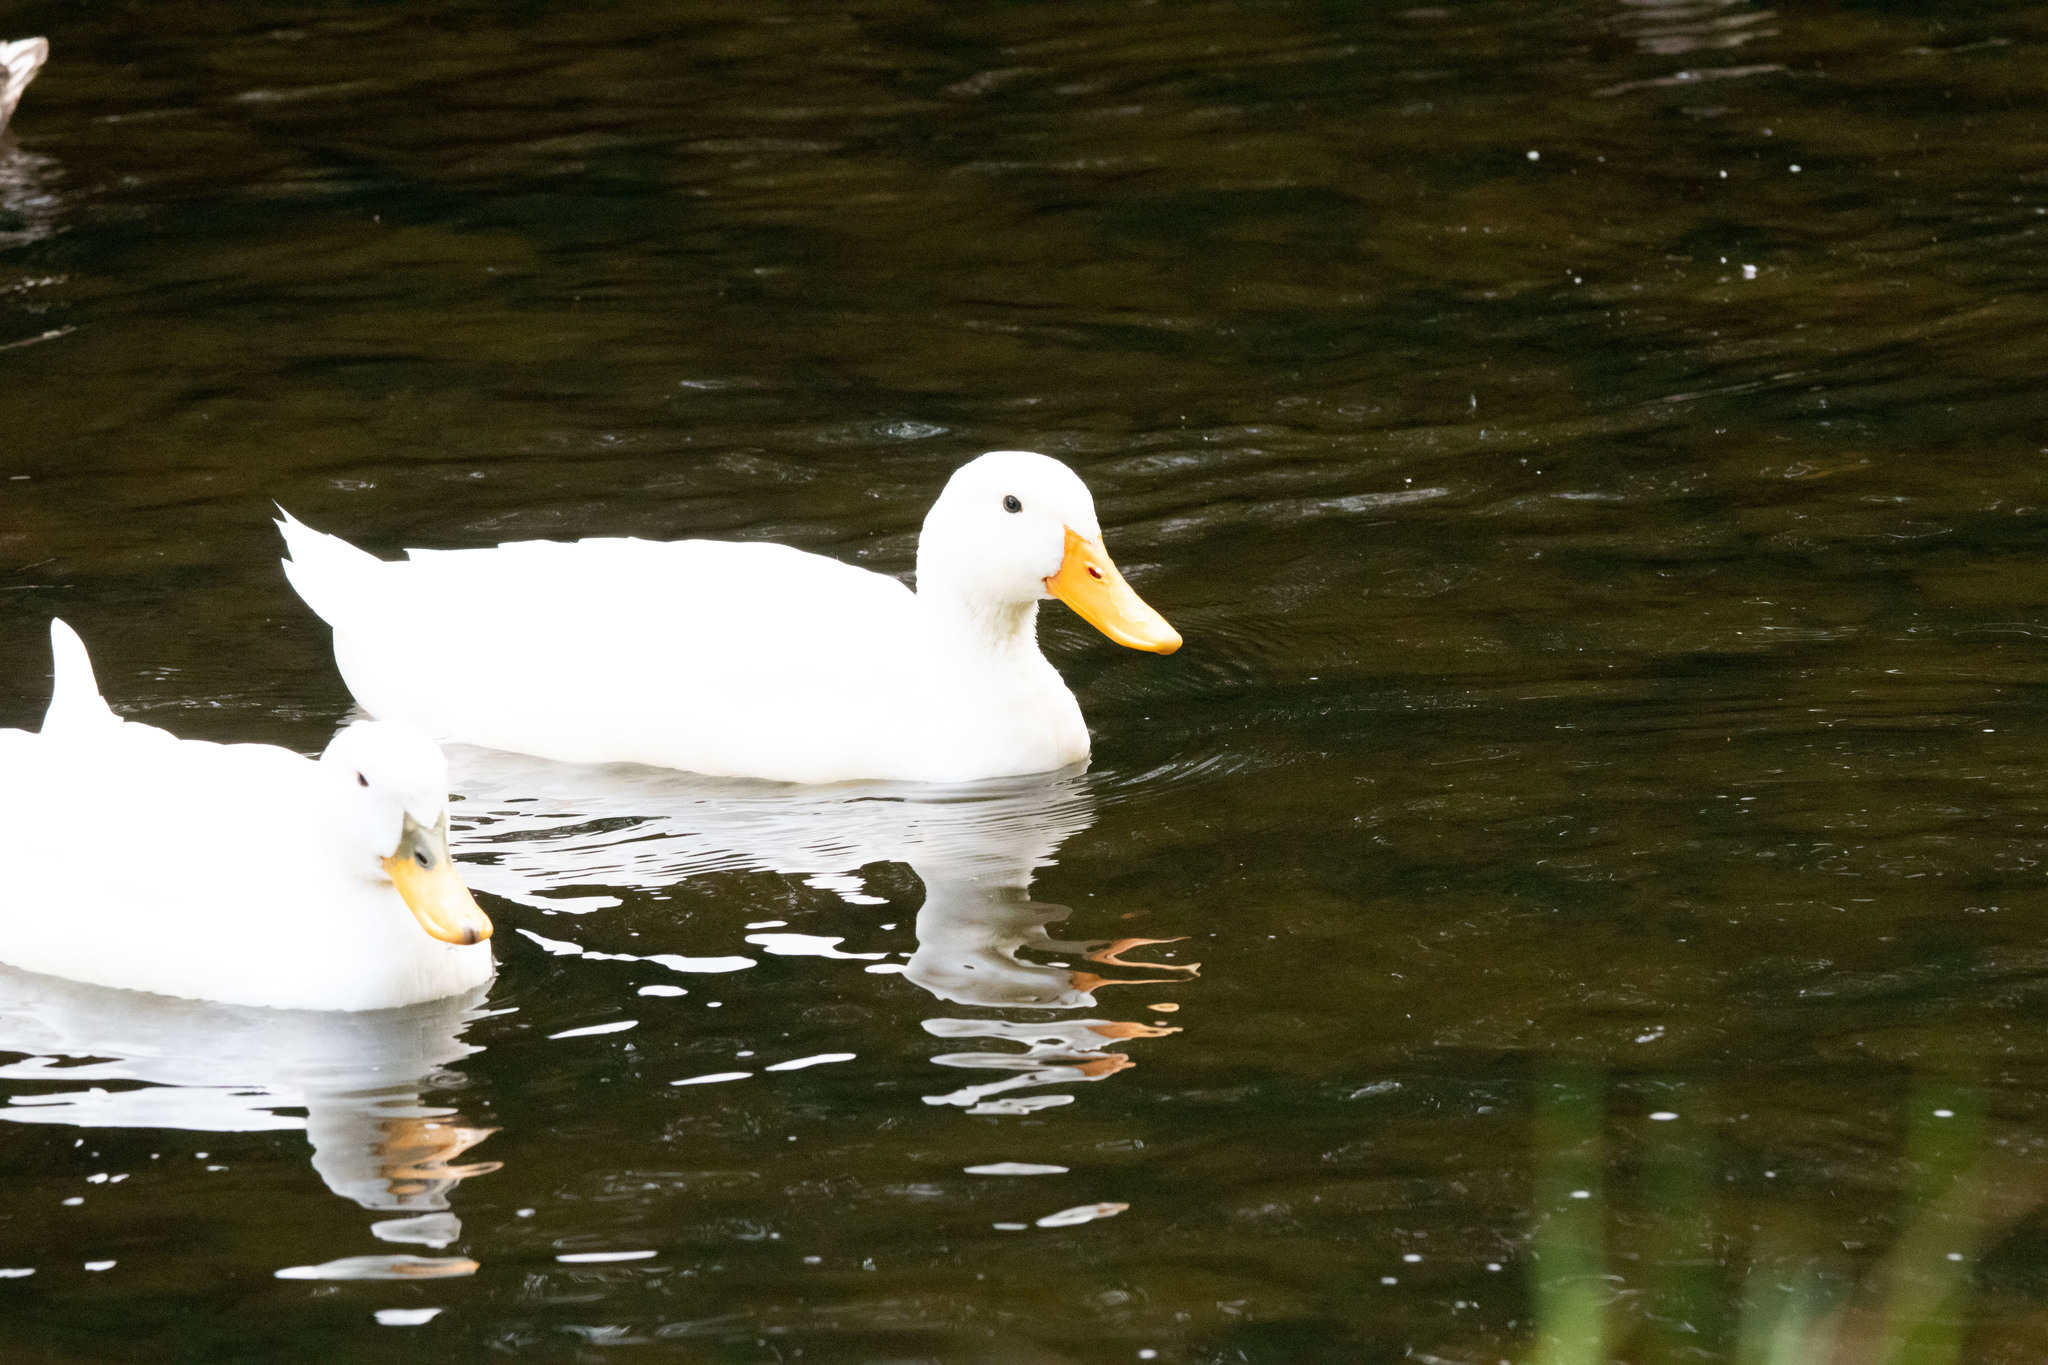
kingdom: Animalia
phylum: Chordata
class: Aves
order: Anseriformes
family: Anatidae
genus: Anas
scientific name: Anas platyrhynchos
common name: Mallard
